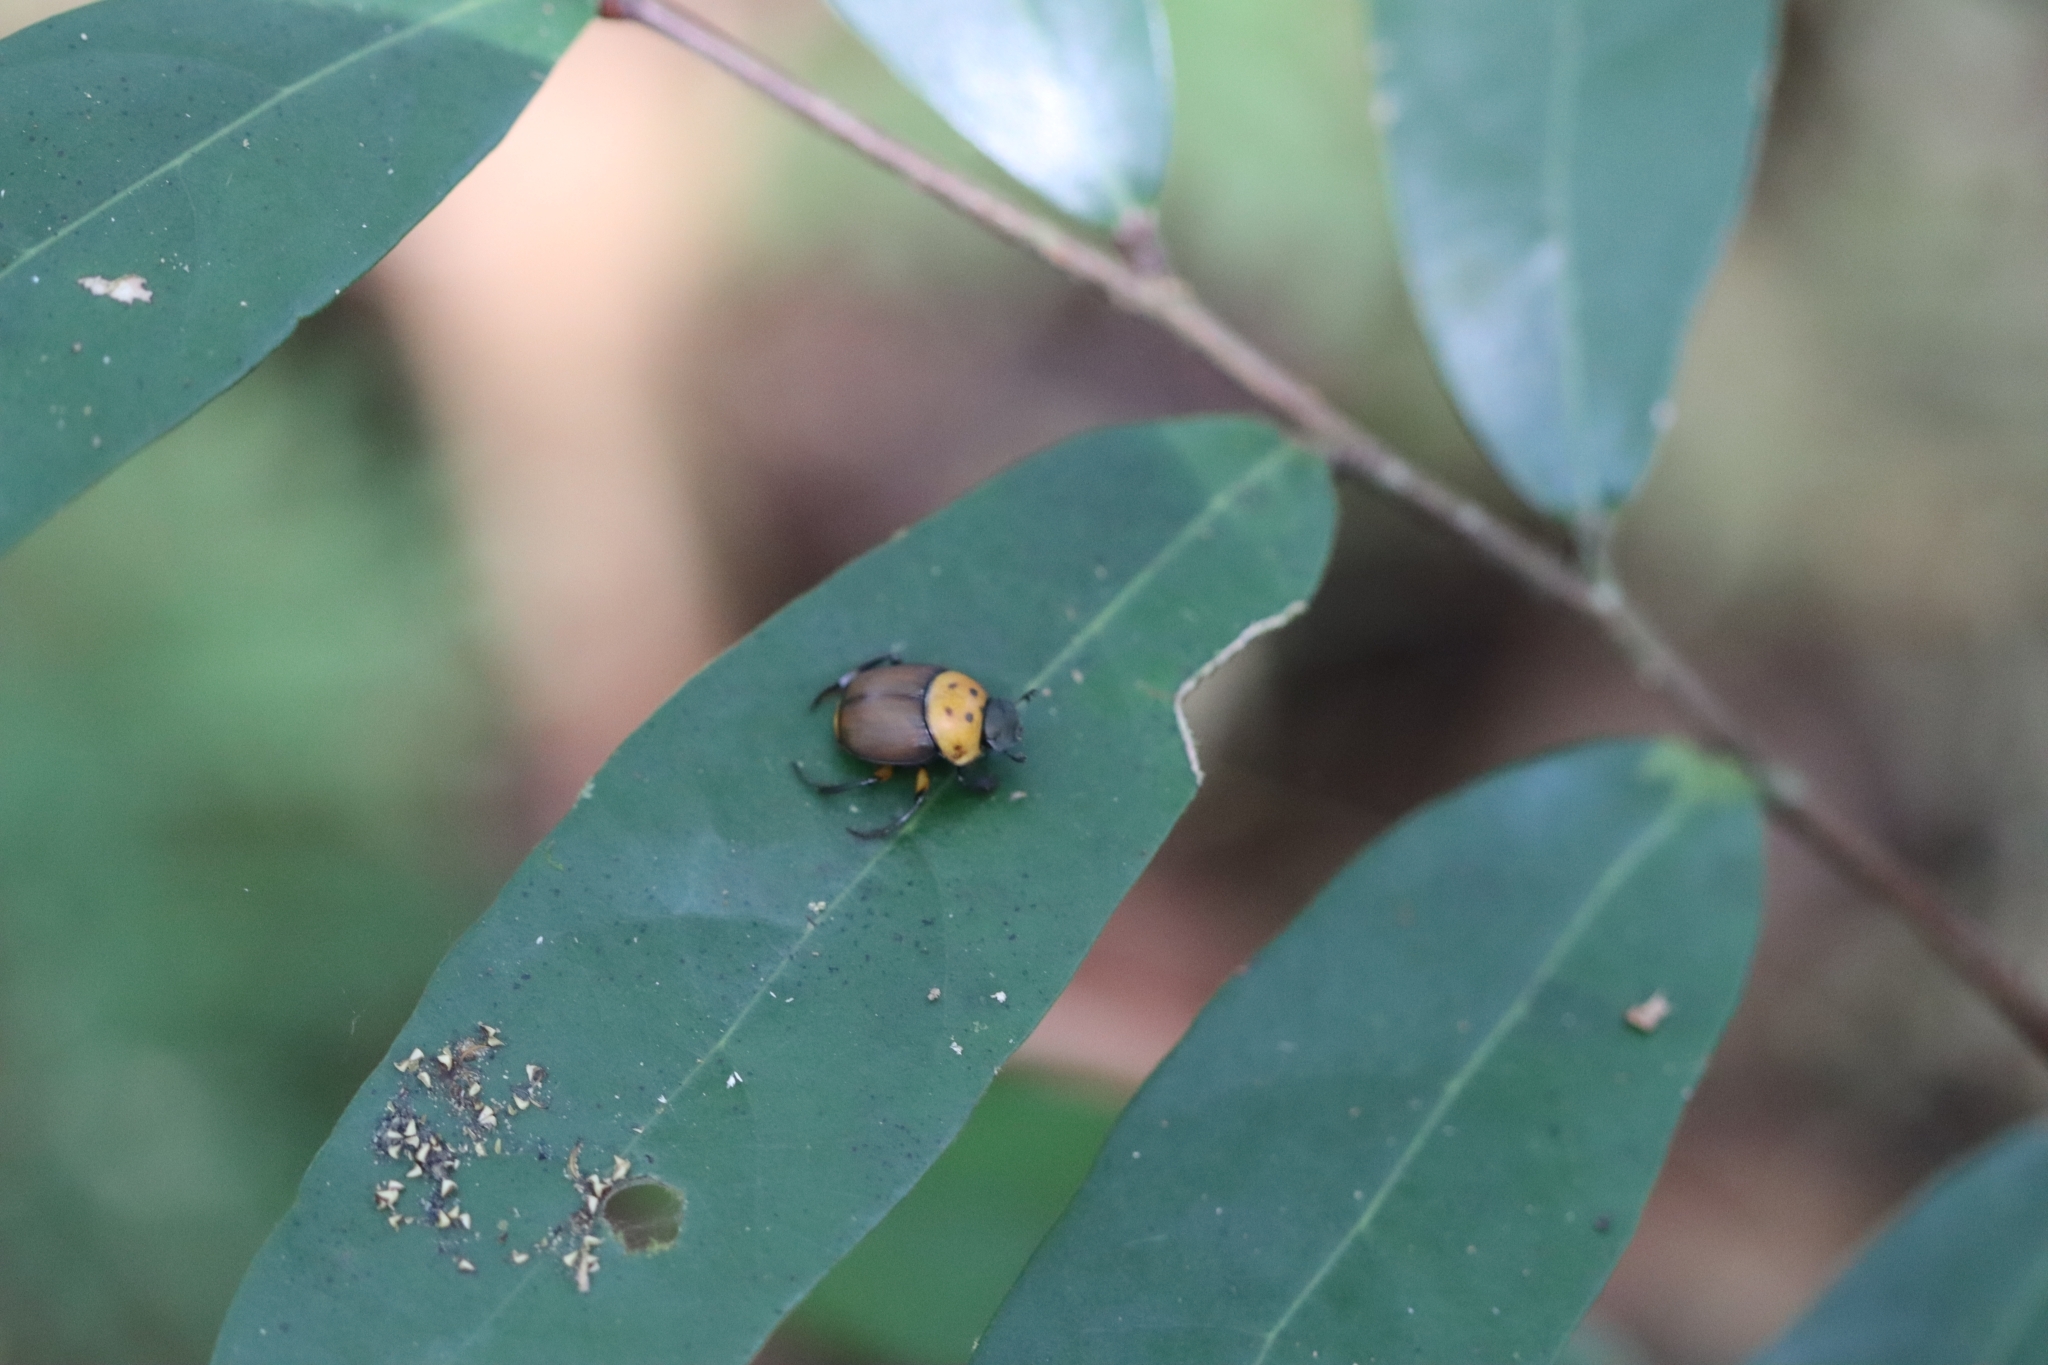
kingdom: Animalia
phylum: Arthropoda
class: Insecta
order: Coleoptera
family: Scarabaeidae
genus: Canthon
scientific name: Canthon triangularis
